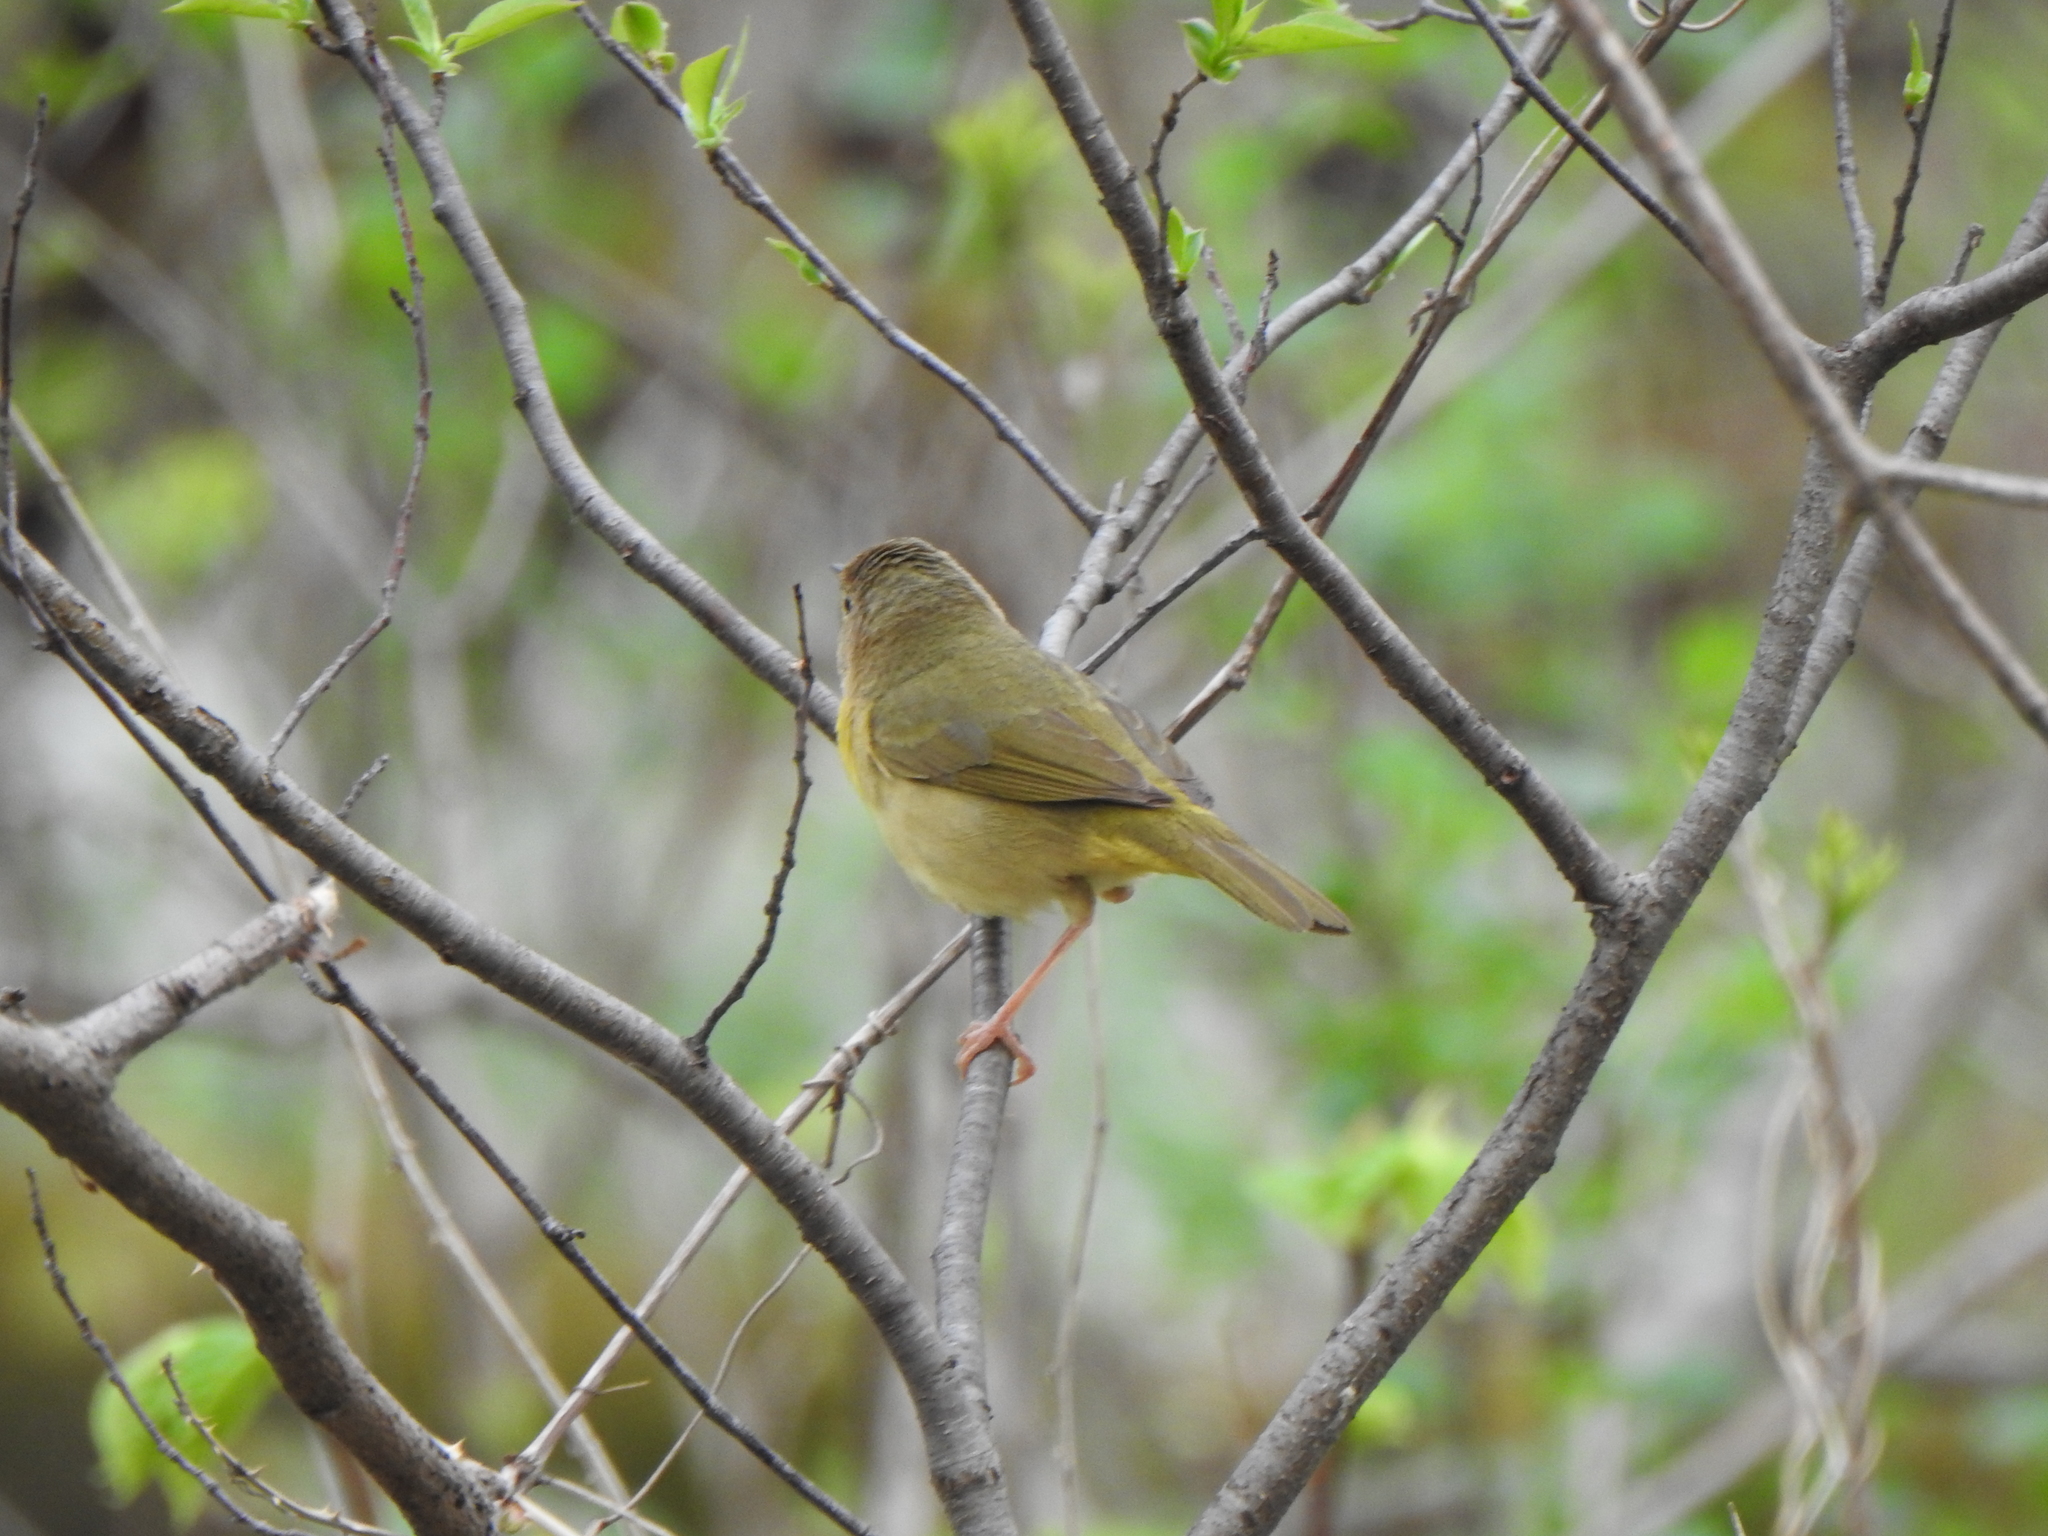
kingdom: Animalia
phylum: Chordata
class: Aves
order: Passeriformes
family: Parulidae
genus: Geothlypis
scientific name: Geothlypis trichas
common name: Common yellowthroat
